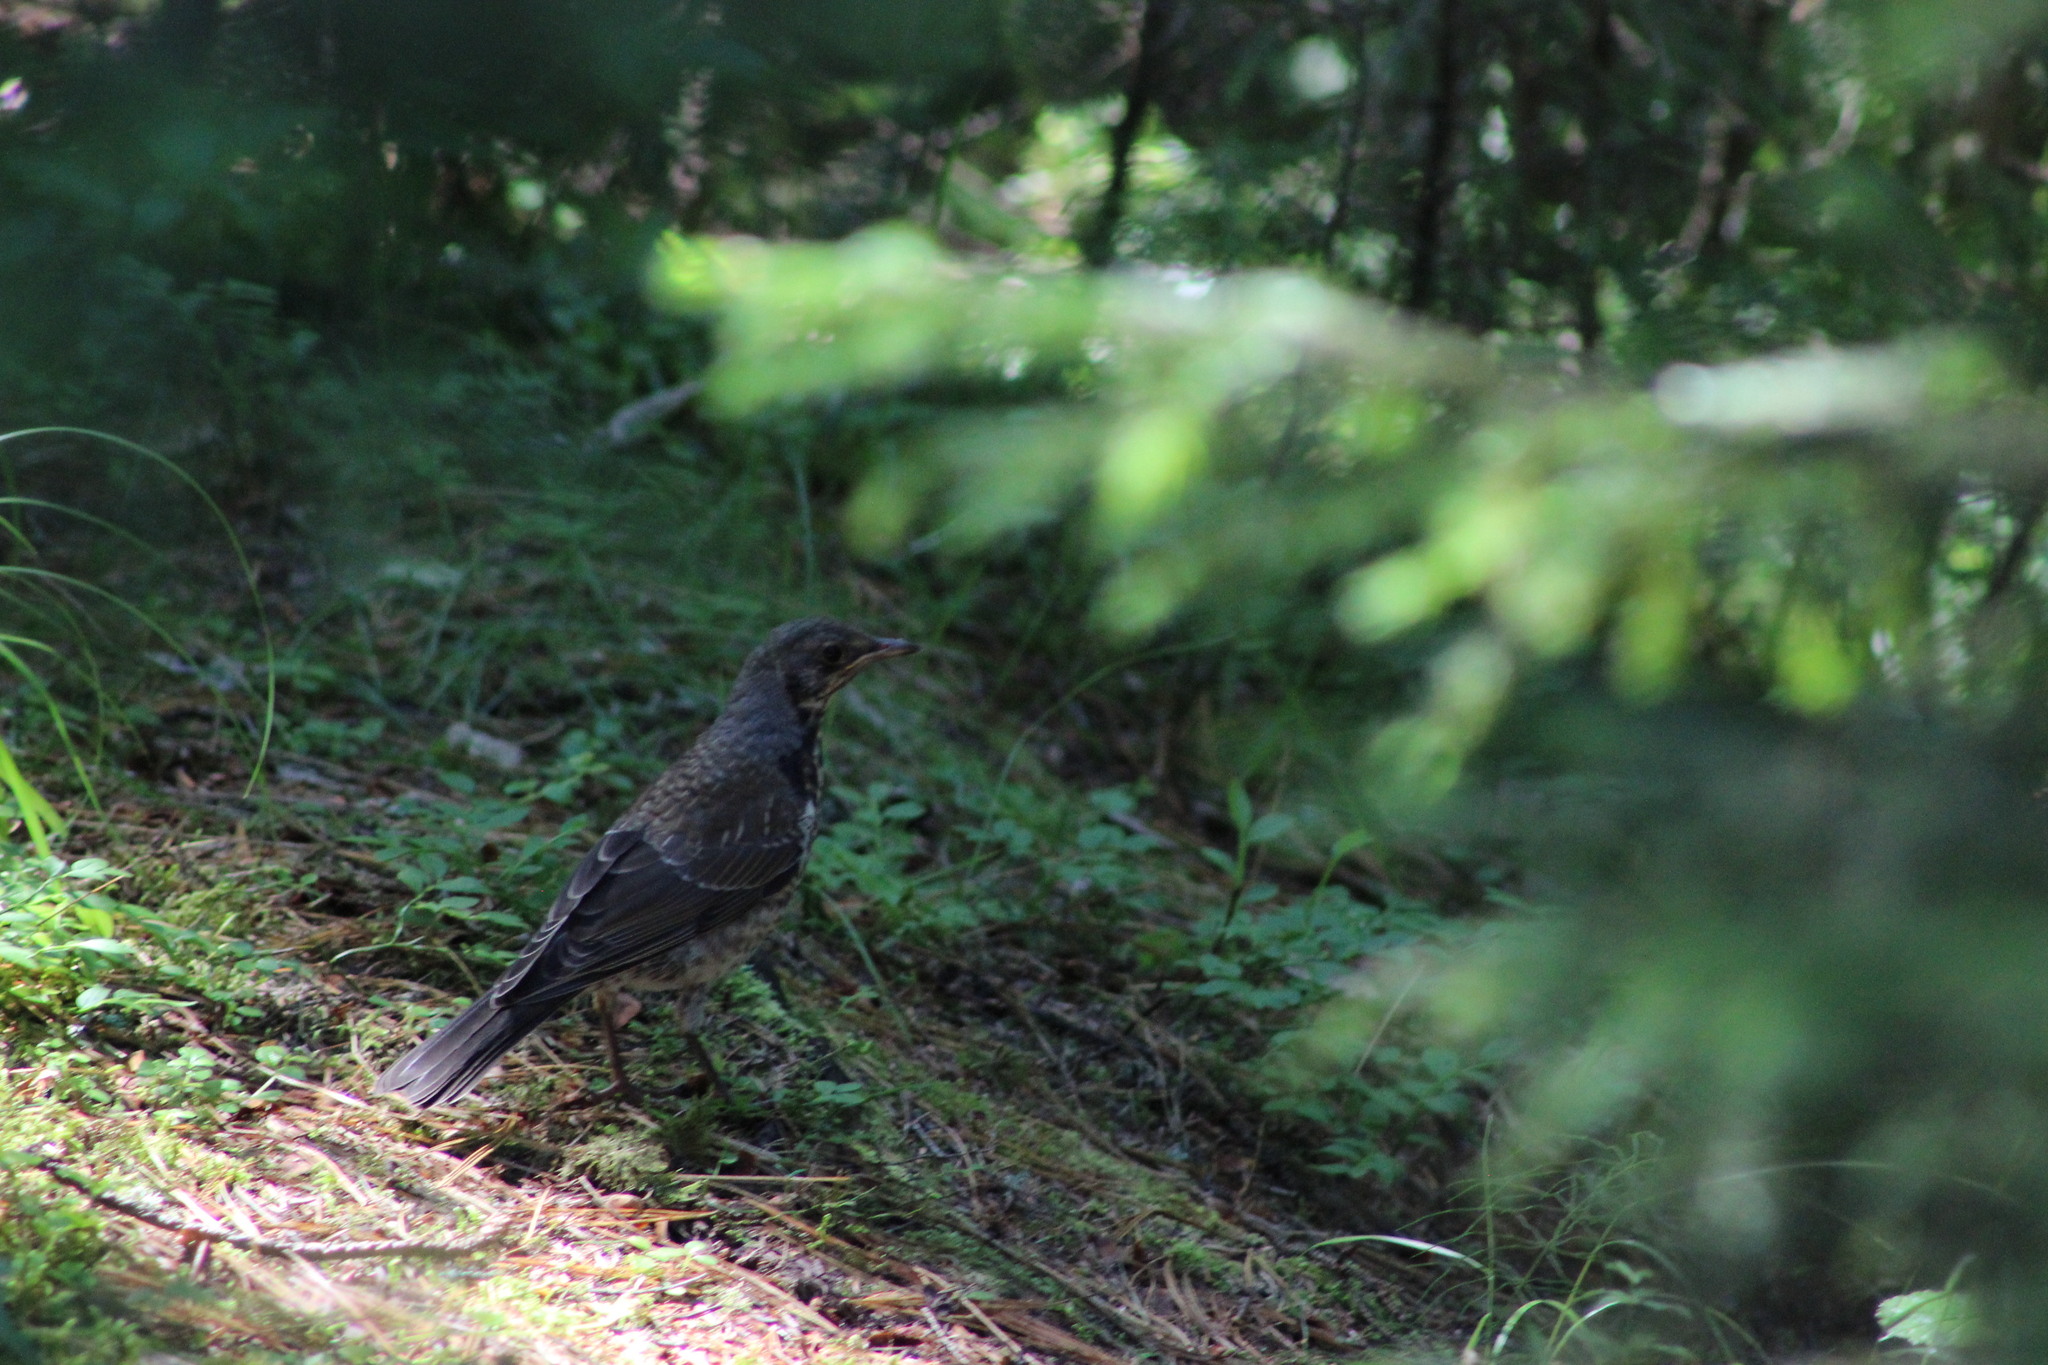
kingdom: Animalia
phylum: Chordata
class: Aves
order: Passeriformes
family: Turdidae
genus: Turdus
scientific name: Turdus pilaris
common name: Fieldfare
